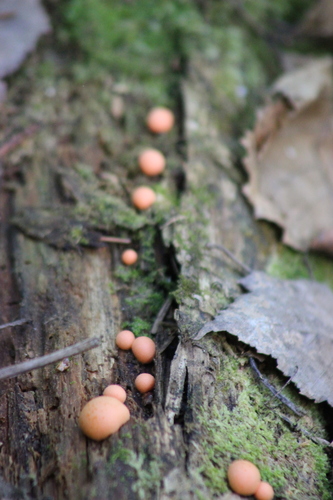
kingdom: Protozoa
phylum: Mycetozoa
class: Myxomycetes
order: Cribrariales
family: Tubiferaceae
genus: Lycogala
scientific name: Lycogala epidendrum
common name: Wolf's milk
